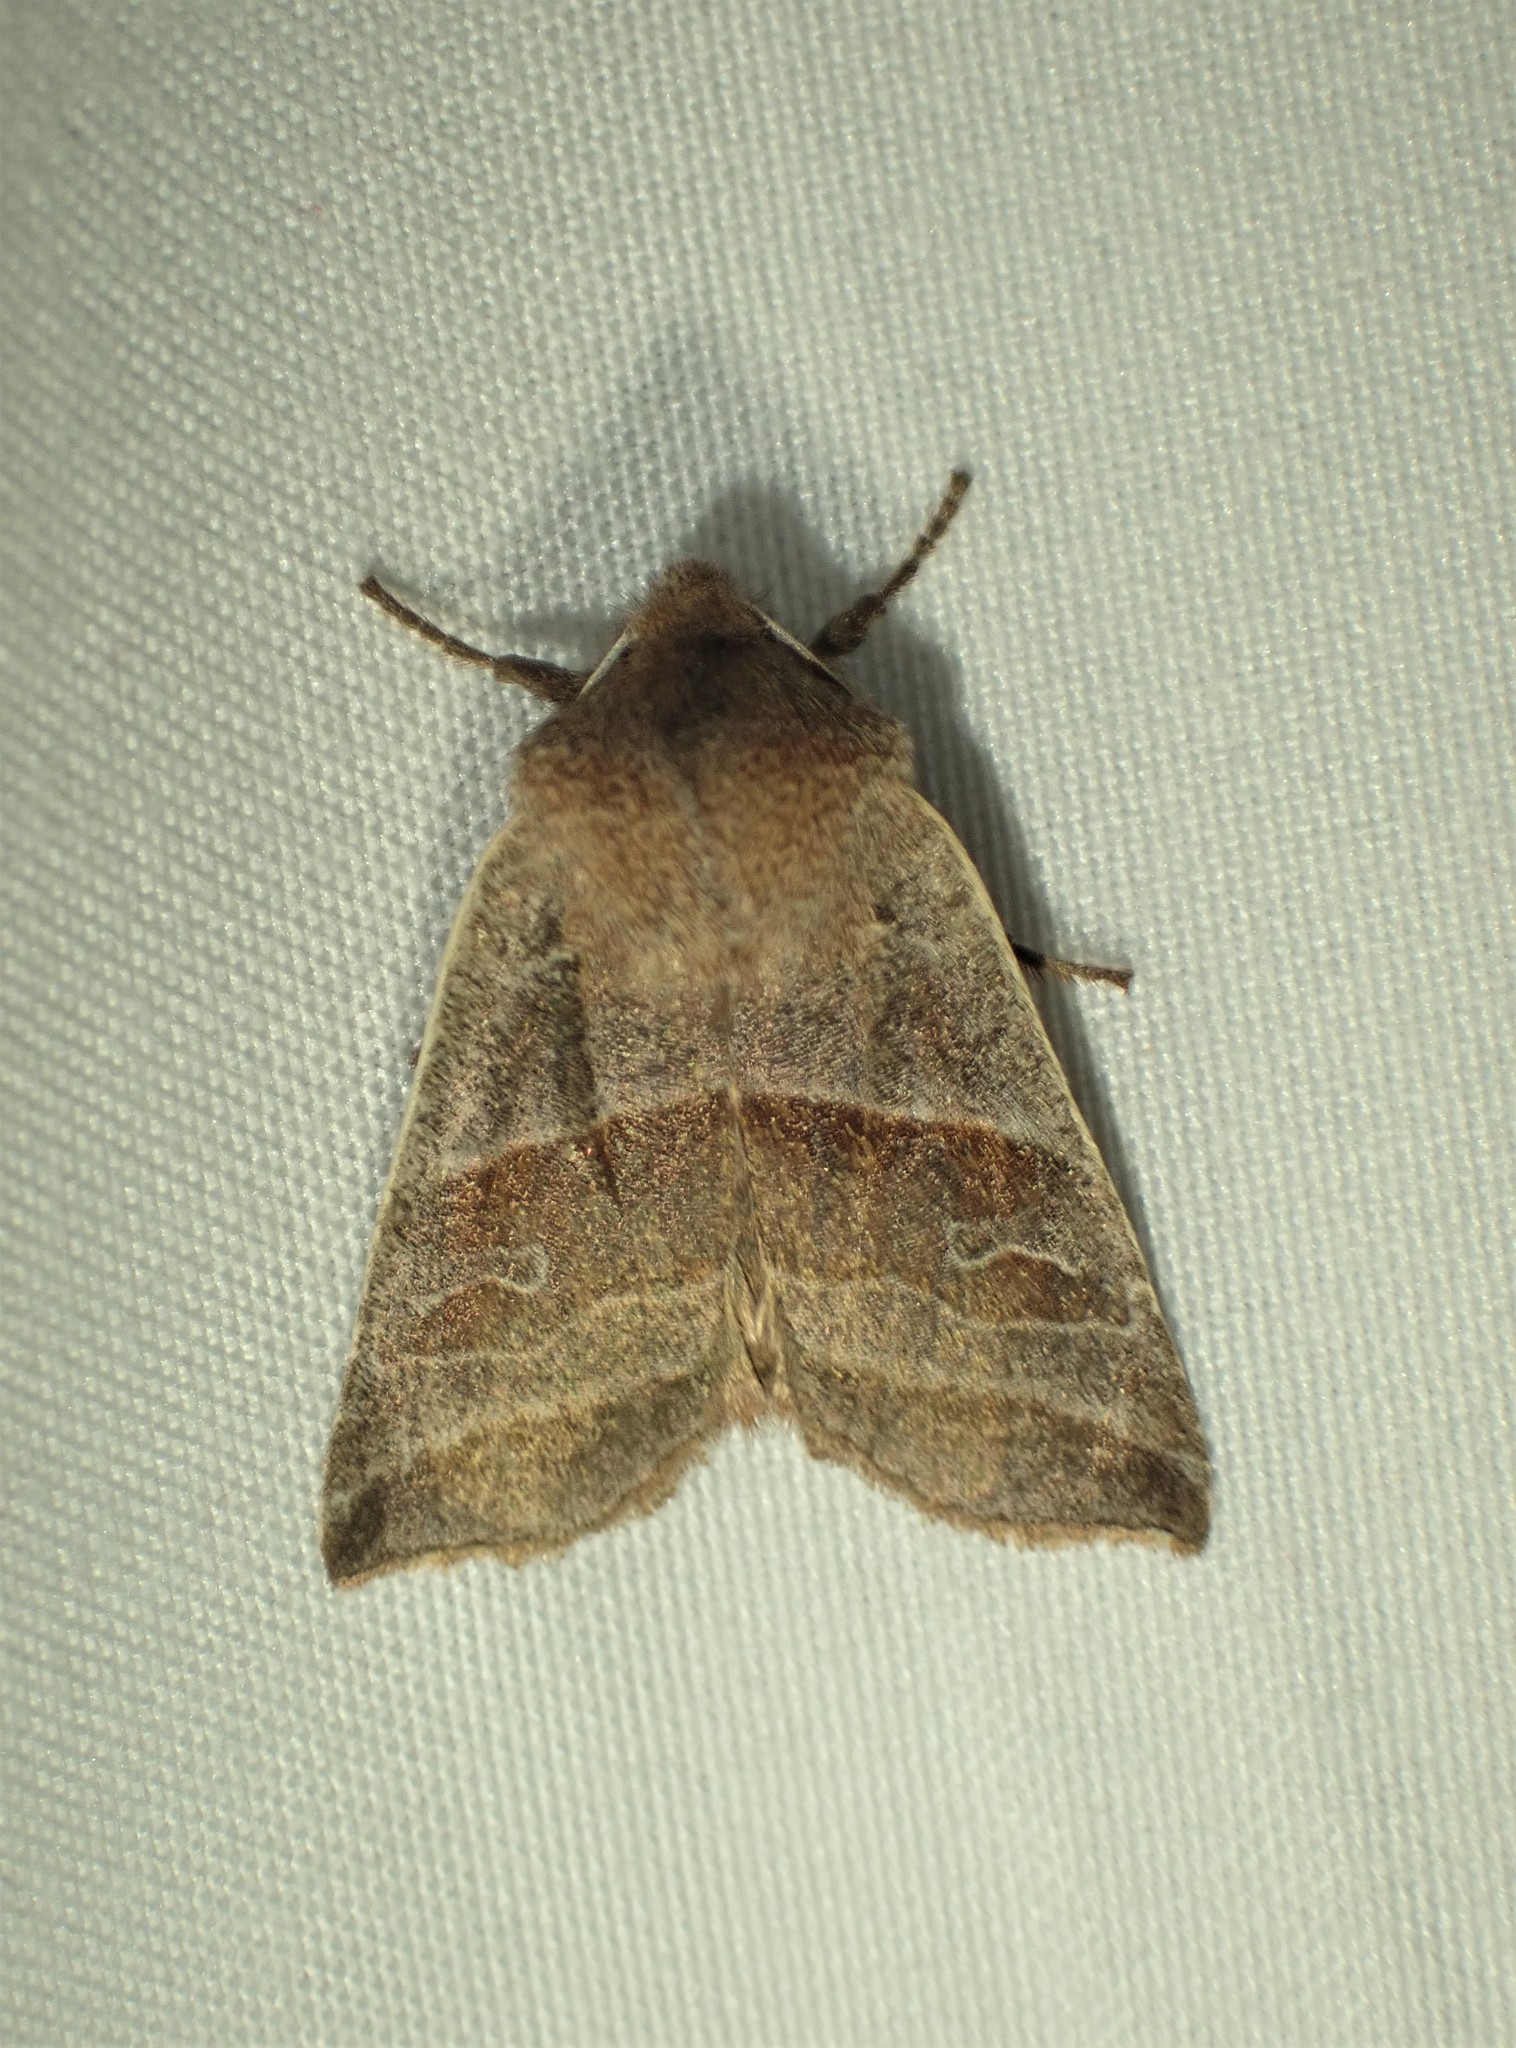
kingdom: Animalia
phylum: Arthropoda
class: Insecta
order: Lepidoptera
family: Noctuidae
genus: Eupsilia
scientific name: Eupsilia devia
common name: Lost sallow
